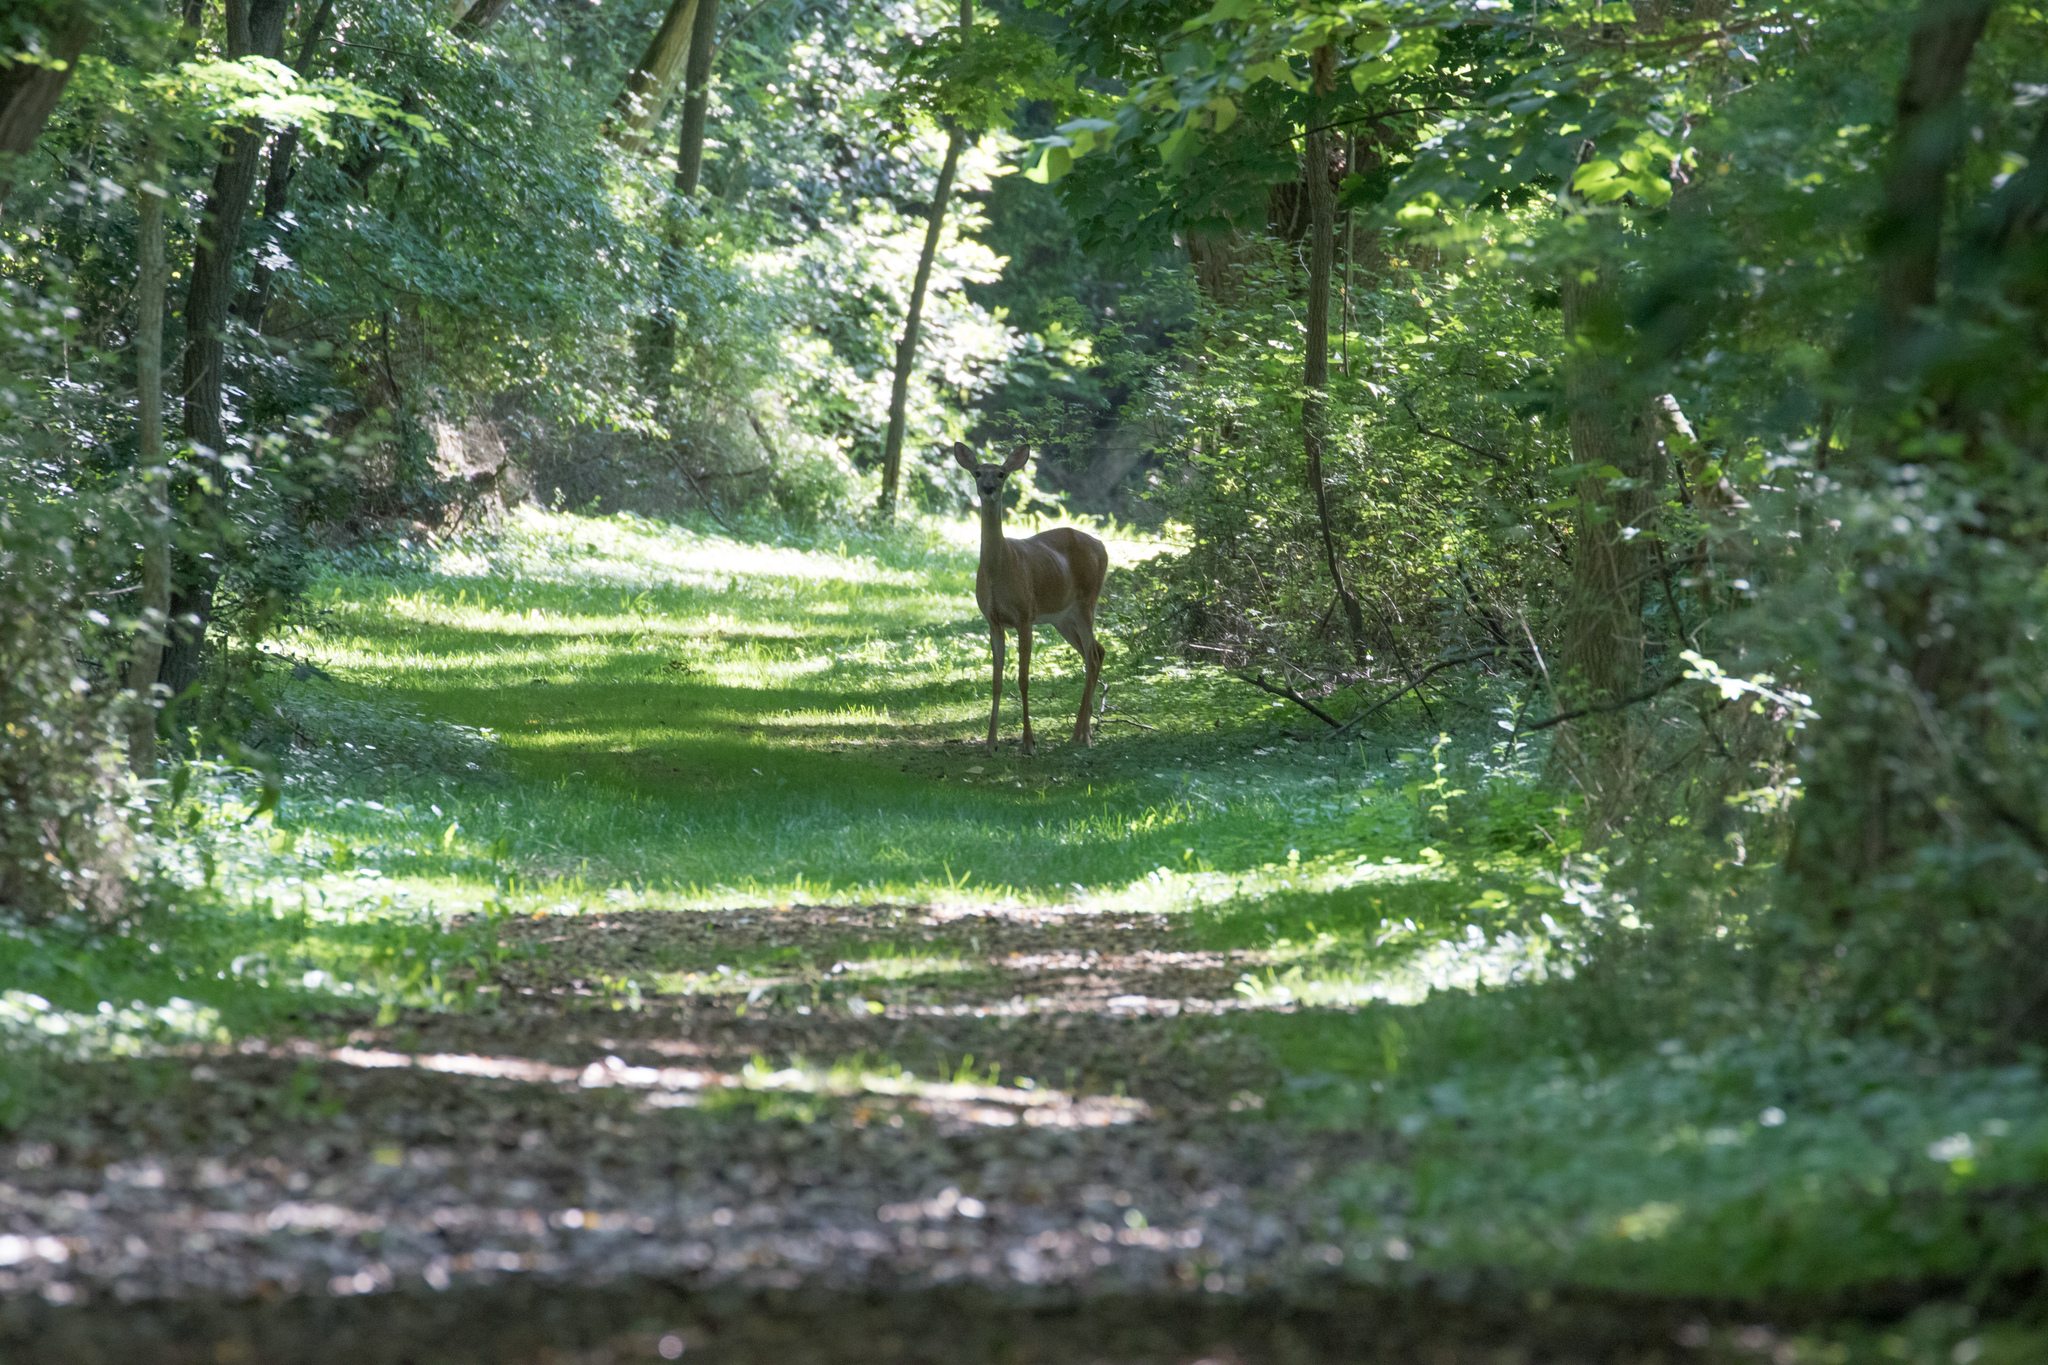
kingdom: Animalia
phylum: Chordata
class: Mammalia
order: Artiodactyla
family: Cervidae
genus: Odocoileus
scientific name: Odocoileus virginianus
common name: White-tailed deer
